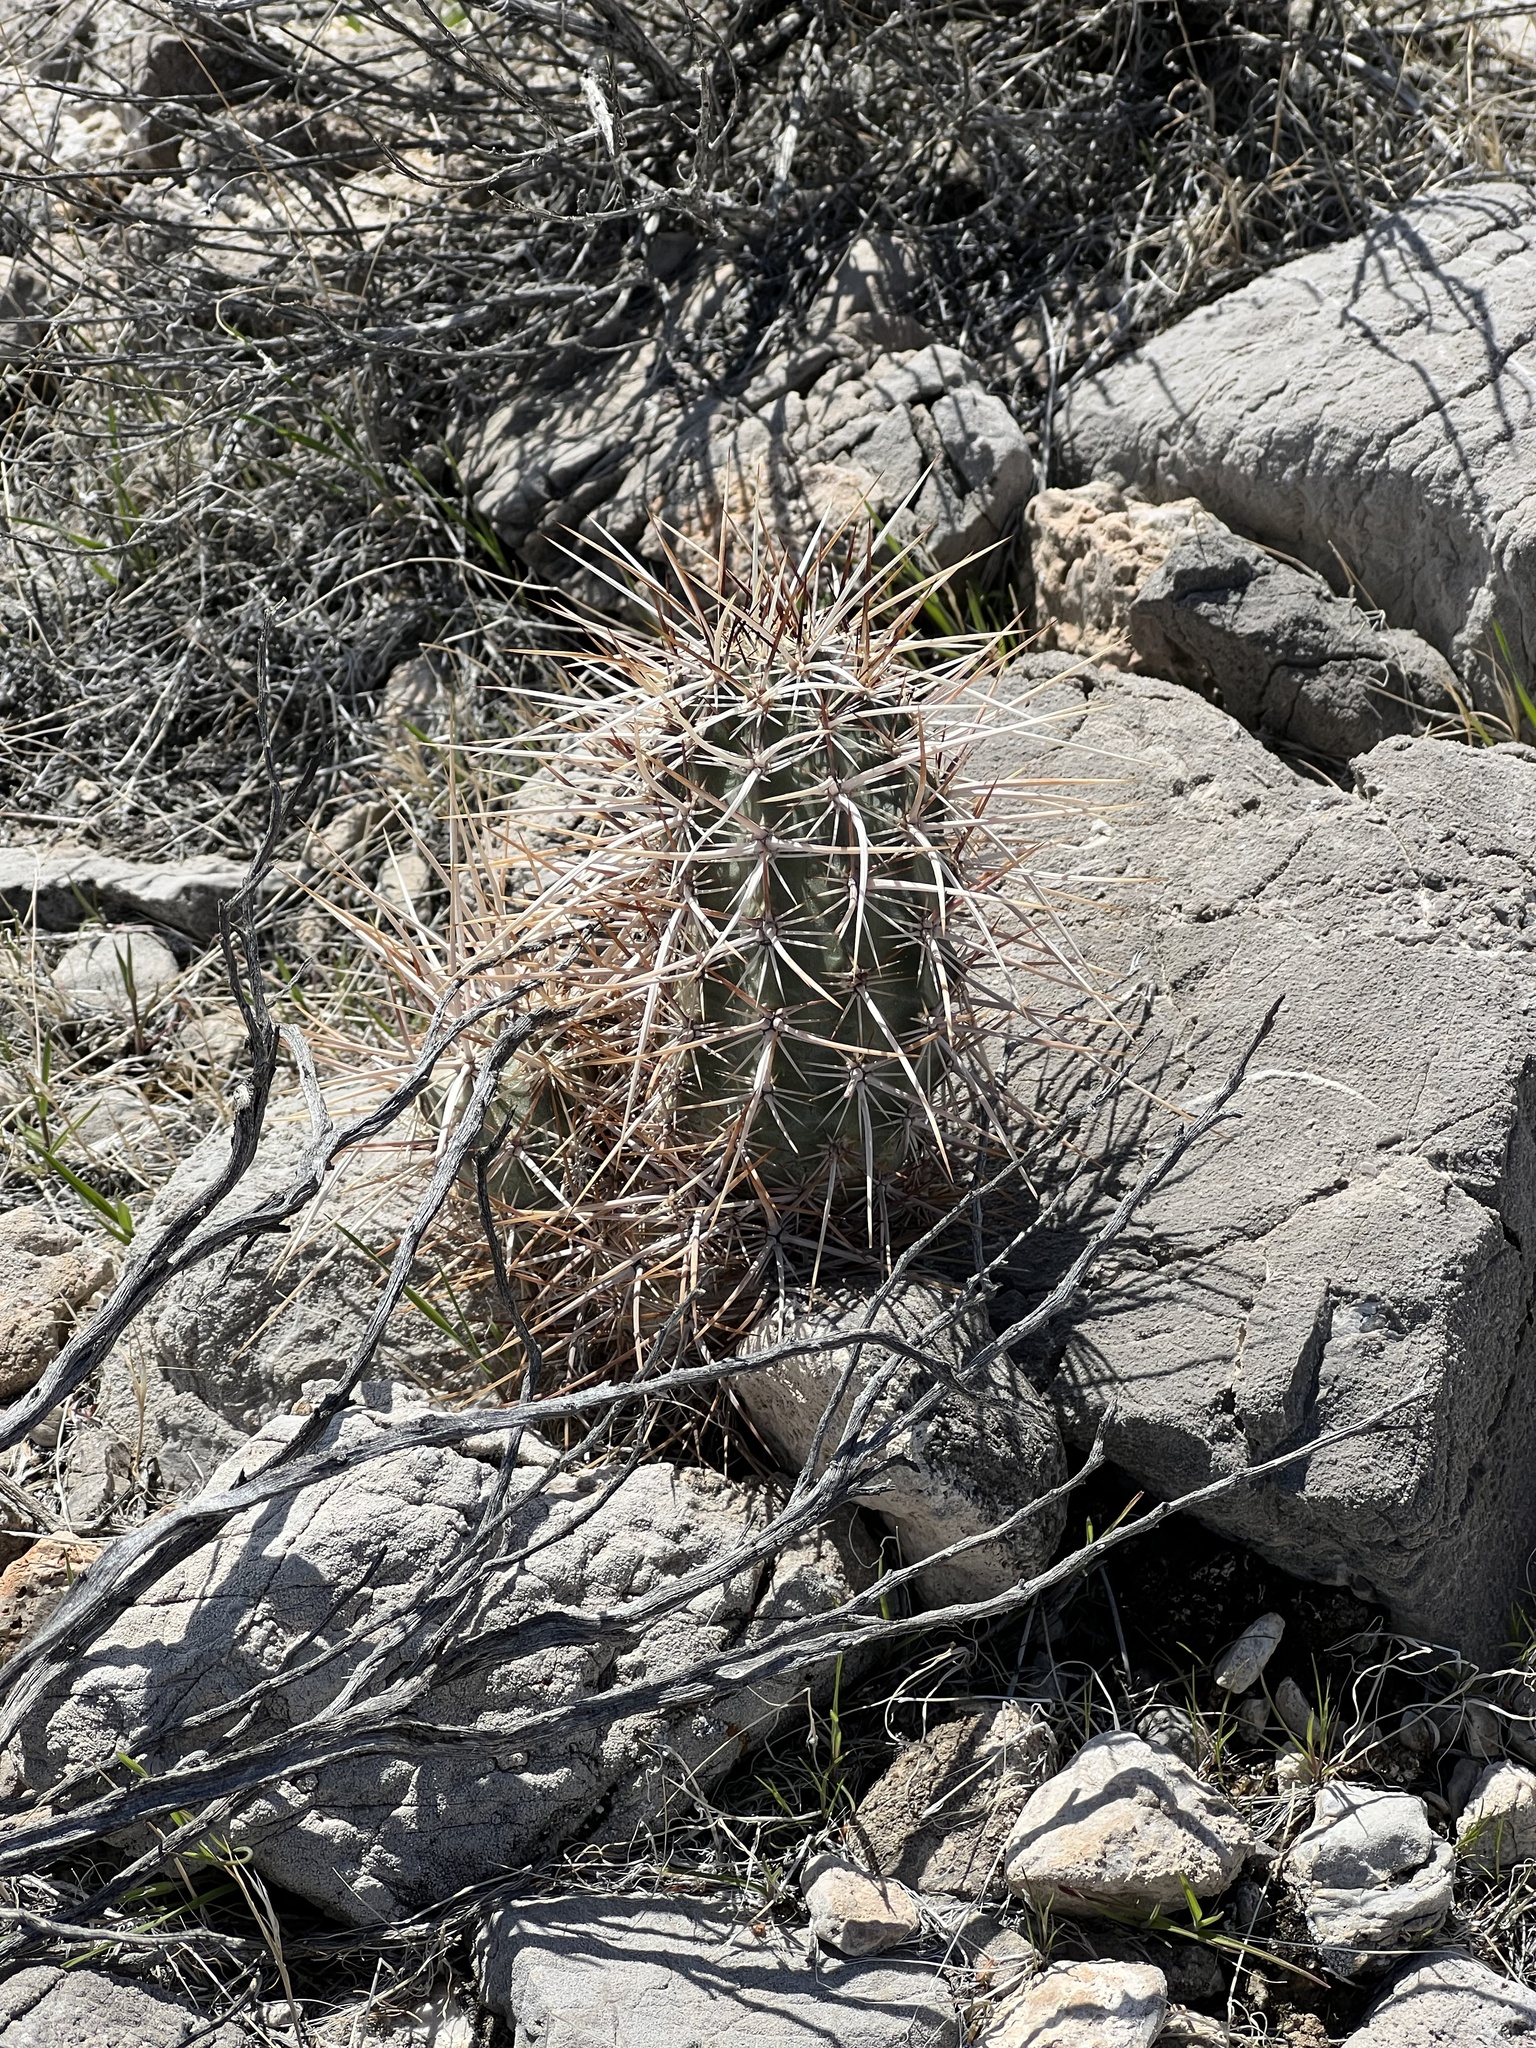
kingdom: Plantae
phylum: Tracheophyta
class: Magnoliopsida
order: Caryophyllales
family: Cactaceae
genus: Echinocereus
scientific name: Echinocereus engelmannii
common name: Engelmann's hedgehog cactus
